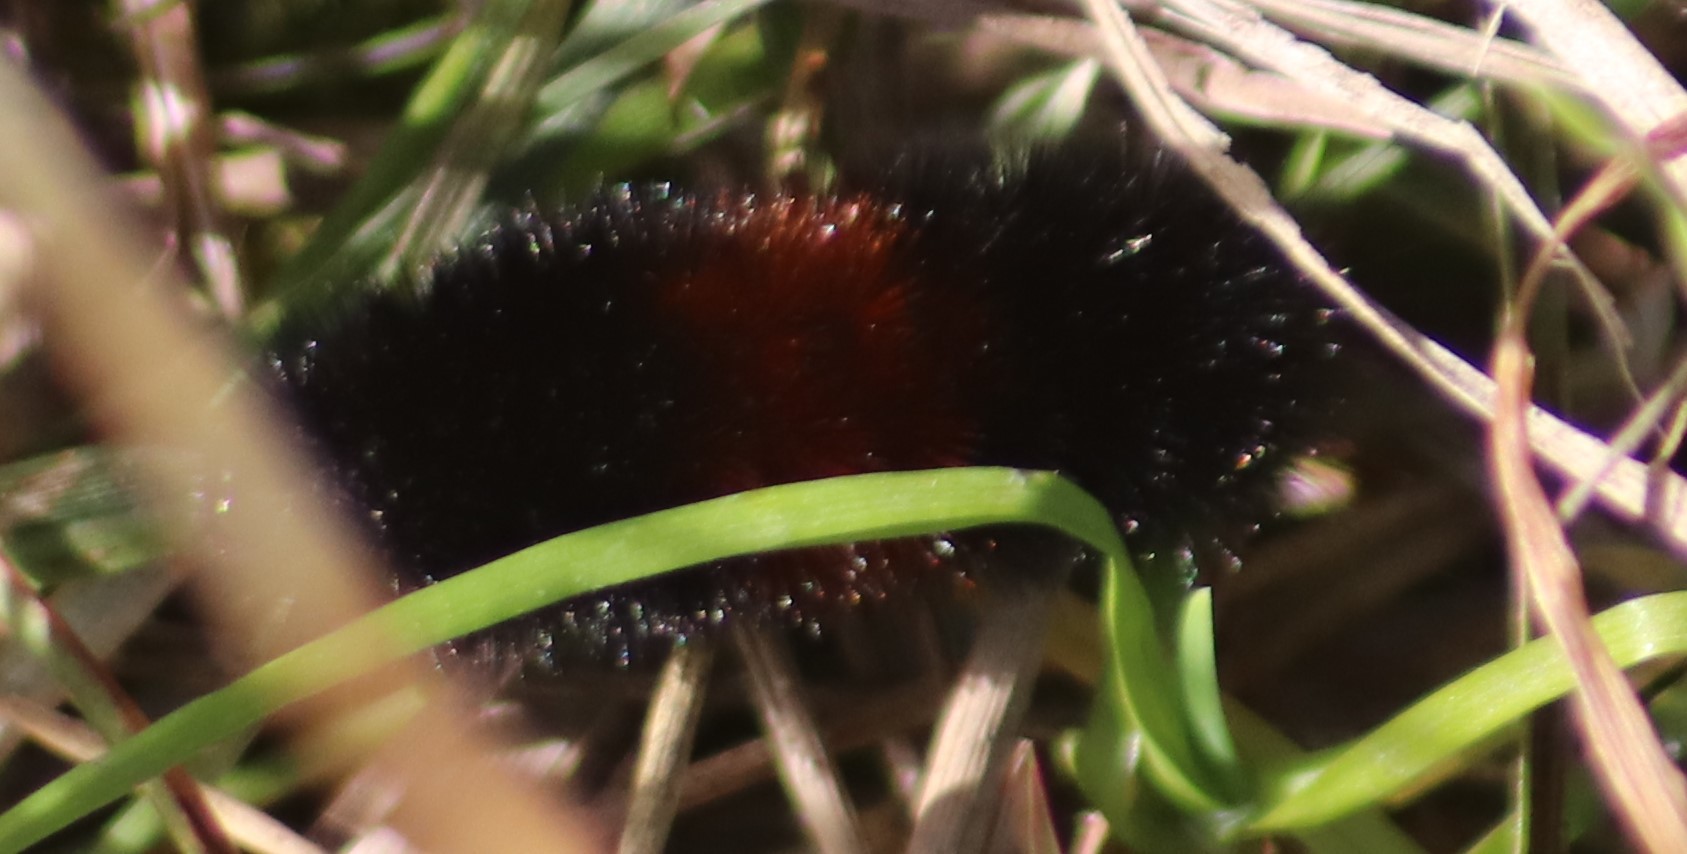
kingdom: Animalia
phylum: Arthropoda
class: Insecta
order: Lepidoptera
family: Erebidae
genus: Pyrrharctia
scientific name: Pyrrharctia isabella
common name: Isabella tiger moth
